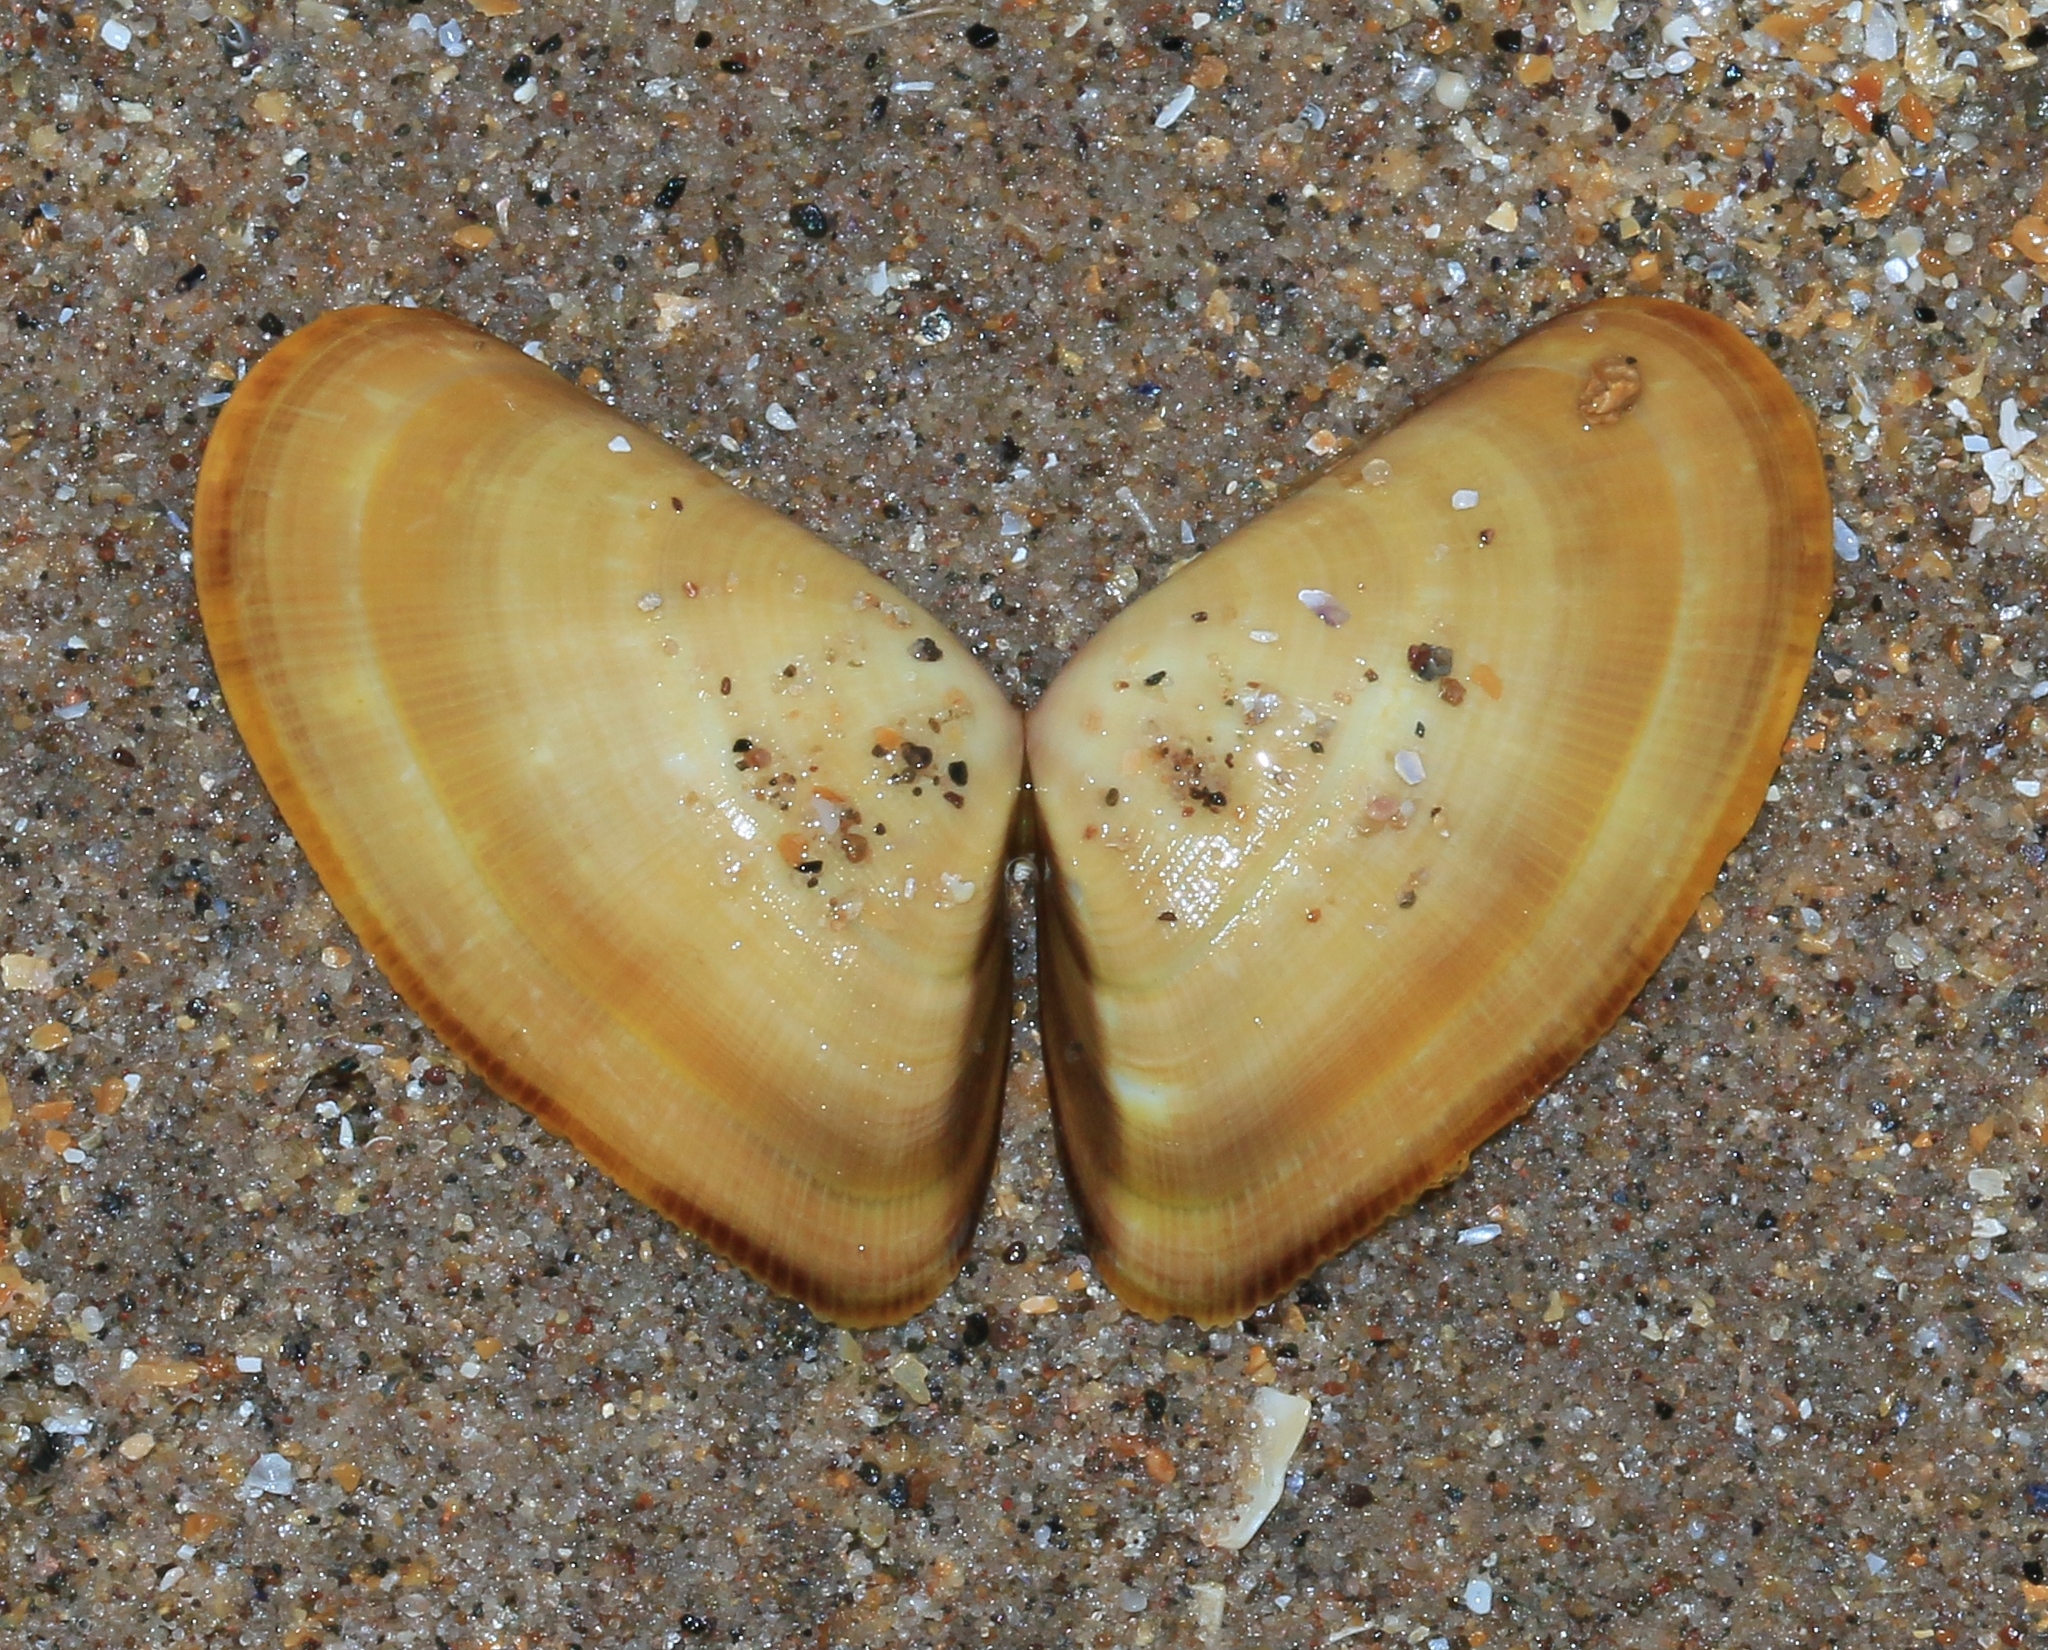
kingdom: Animalia
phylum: Mollusca
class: Bivalvia
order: Cardiida
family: Donacidae
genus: Donax
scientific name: Donax vittatus
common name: Banded wedge-shell
